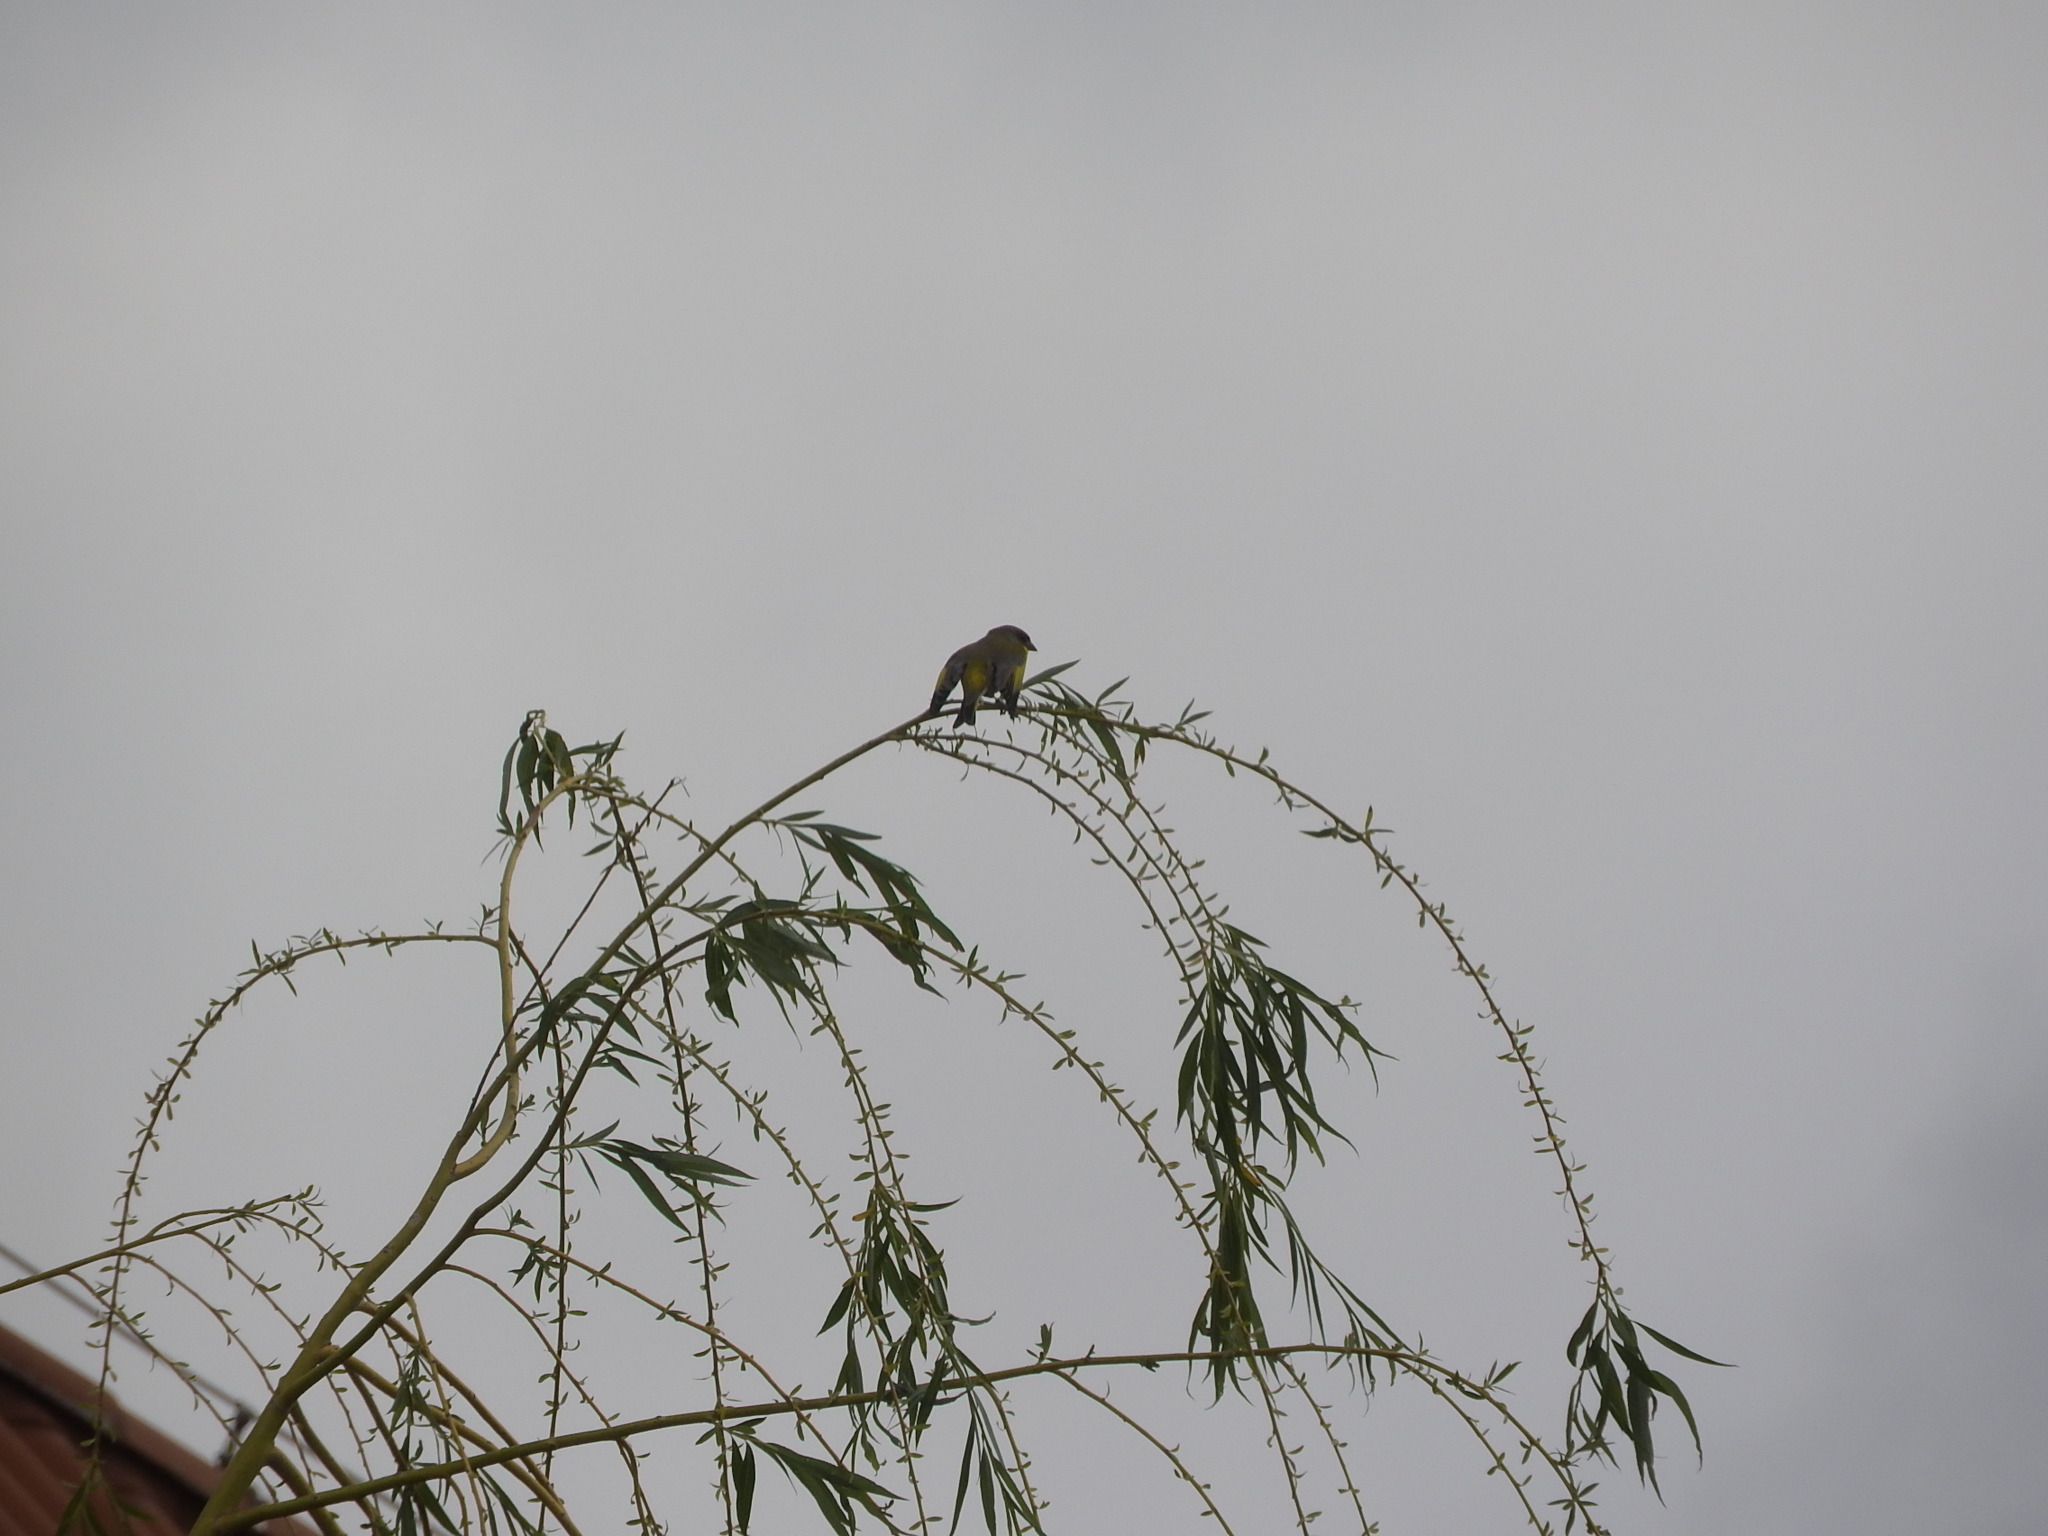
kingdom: Plantae
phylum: Tracheophyta
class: Liliopsida
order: Poales
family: Poaceae
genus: Chloris
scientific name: Chloris chloris
